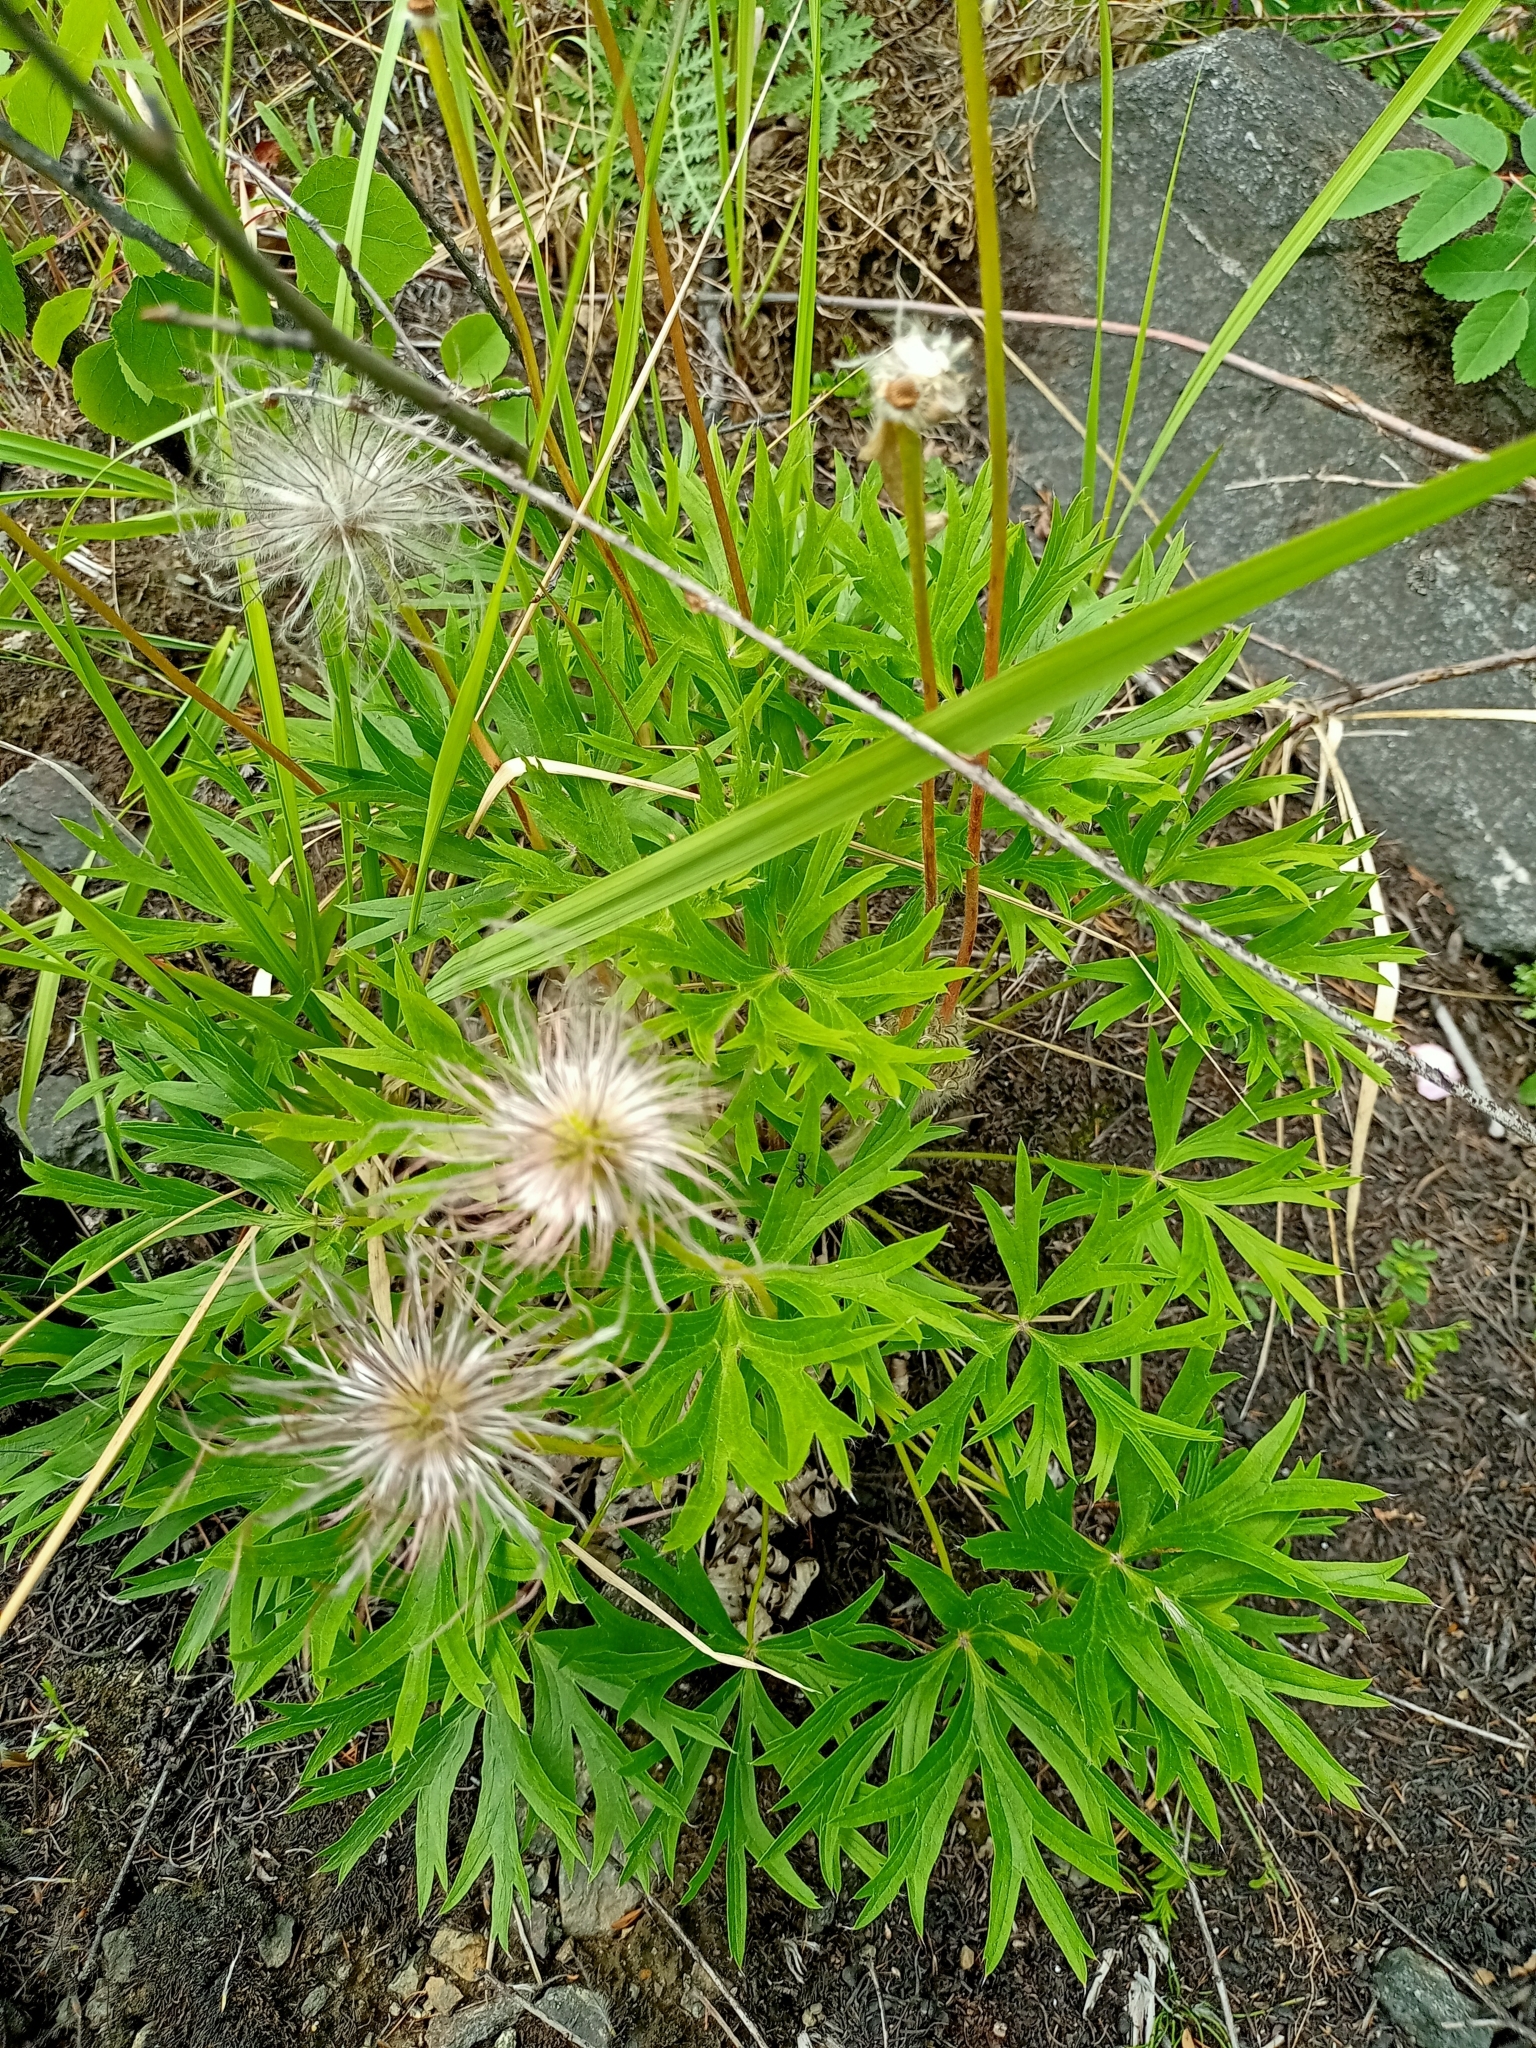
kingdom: Plantae
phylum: Tracheophyta
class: Magnoliopsida
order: Ranunculales
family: Ranunculaceae
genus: Pulsatilla
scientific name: Pulsatilla patens
